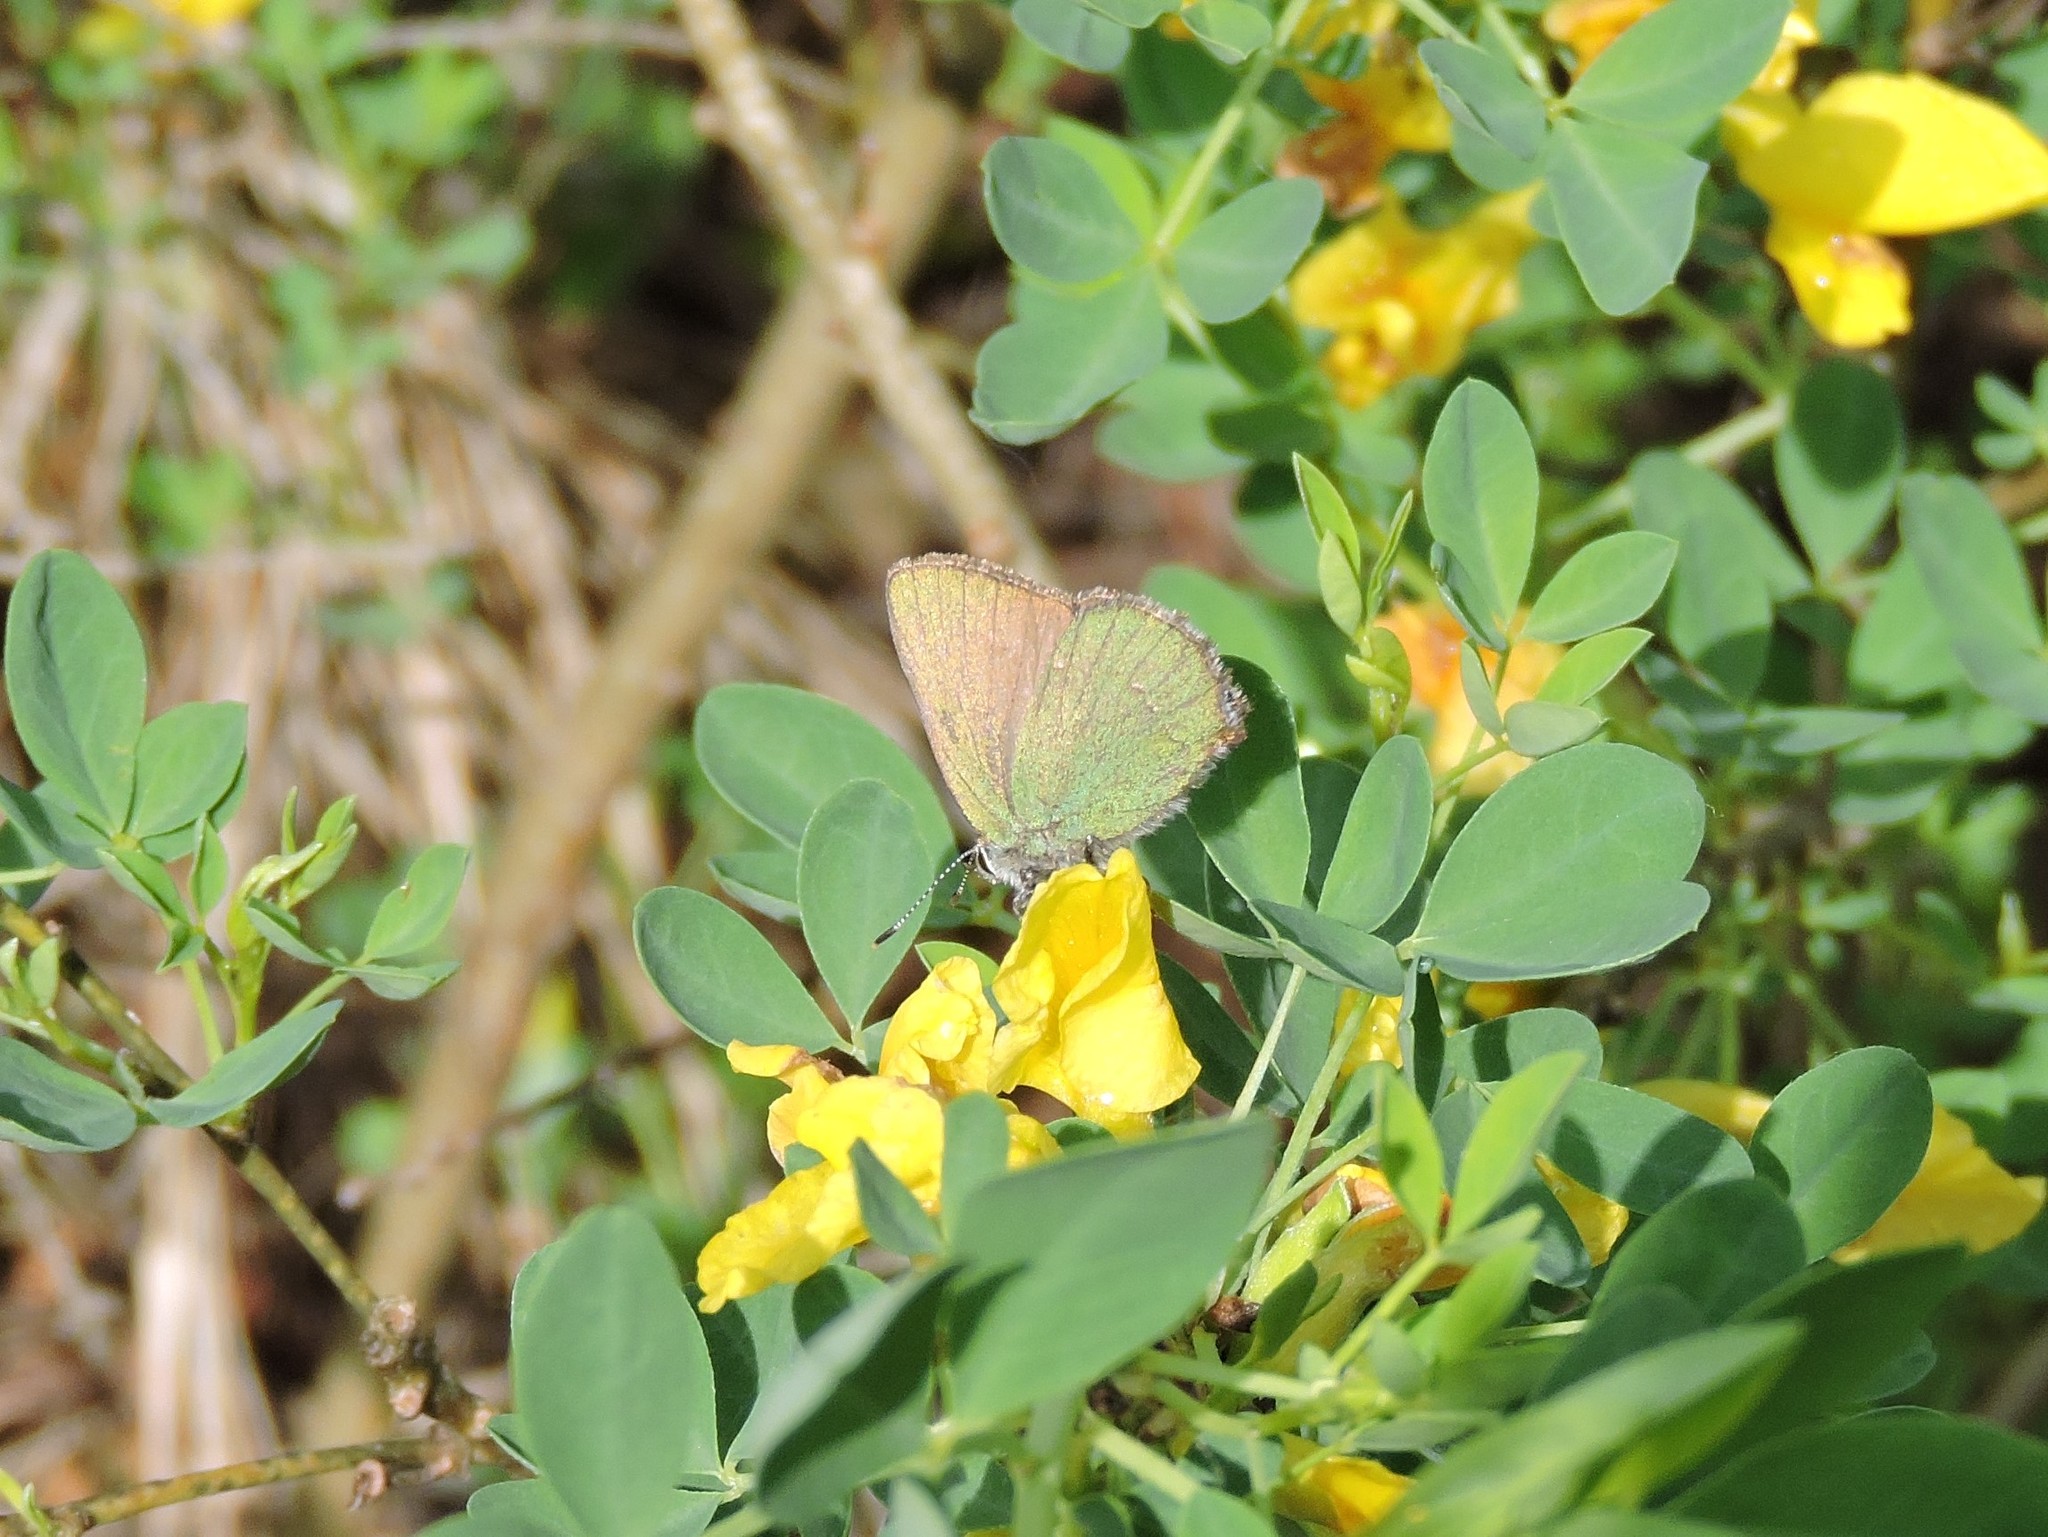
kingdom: Animalia
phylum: Arthropoda
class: Insecta
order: Lepidoptera
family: Lycaenidae
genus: Callophrys
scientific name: Callophrys rubi
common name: Green hairstreak
